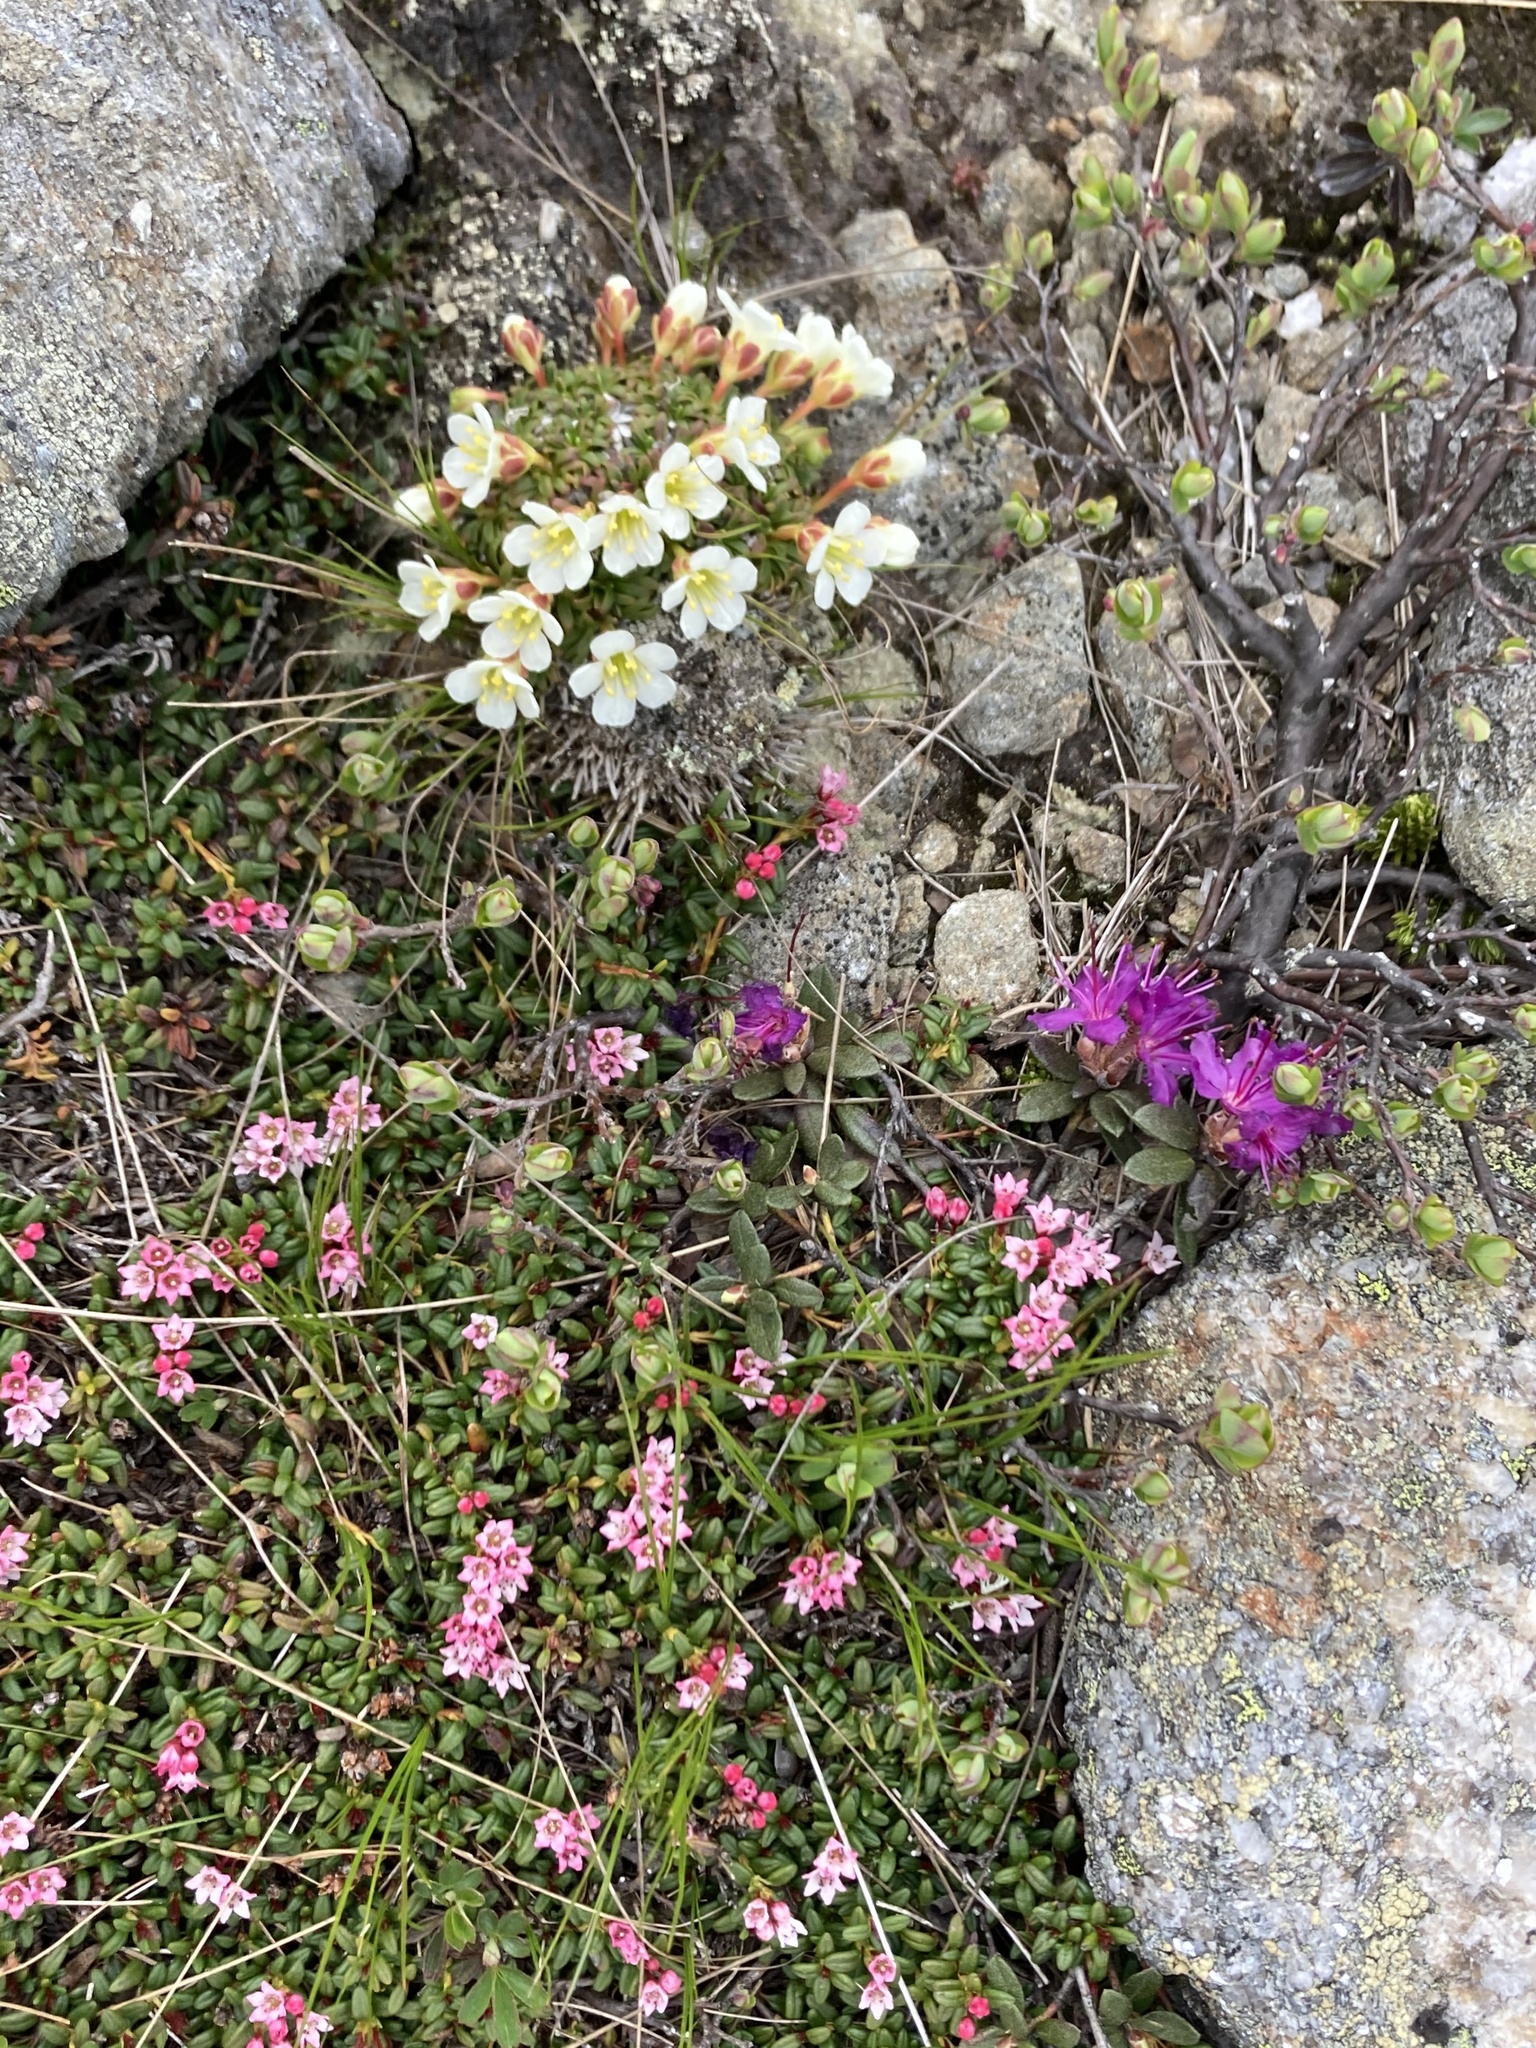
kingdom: Plantae
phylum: Tracheophyta
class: Magnoliopsida
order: Ericales
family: Ericaceae
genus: Rhododendron
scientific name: Rhododendron lapponicum
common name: Lapland rhododendron
